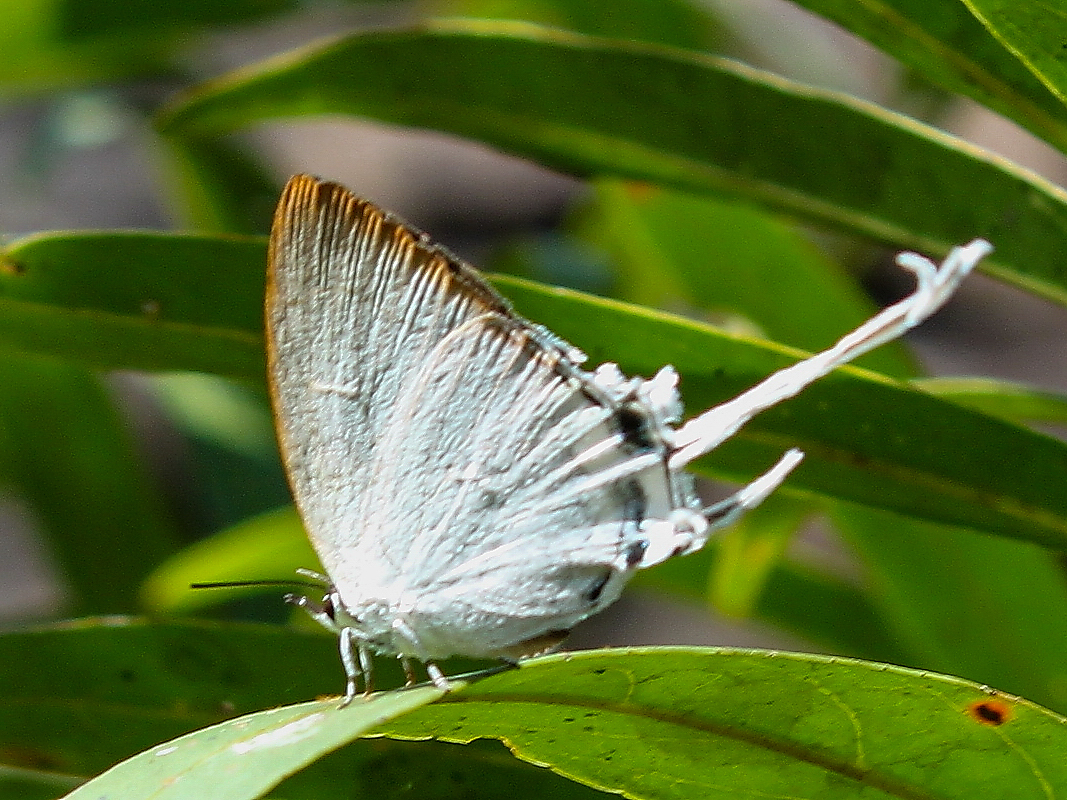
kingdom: Animalia
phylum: Arthropoda
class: Insecta
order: Lepidoptera
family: Lycaenidae
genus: Cheritra
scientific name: Cheritra freja
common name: Common imperial
